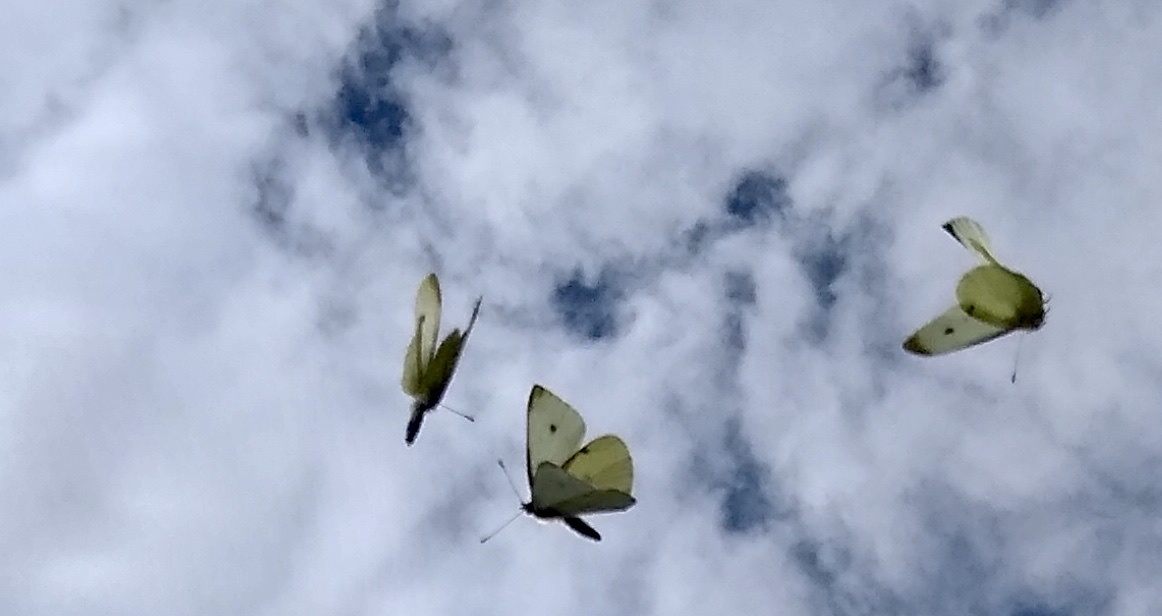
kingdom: Animalia
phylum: Arthropoda
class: Insecta
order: Lepidoptera
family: Pieridae
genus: Pieris
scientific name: Pieris rapae
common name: Small white
